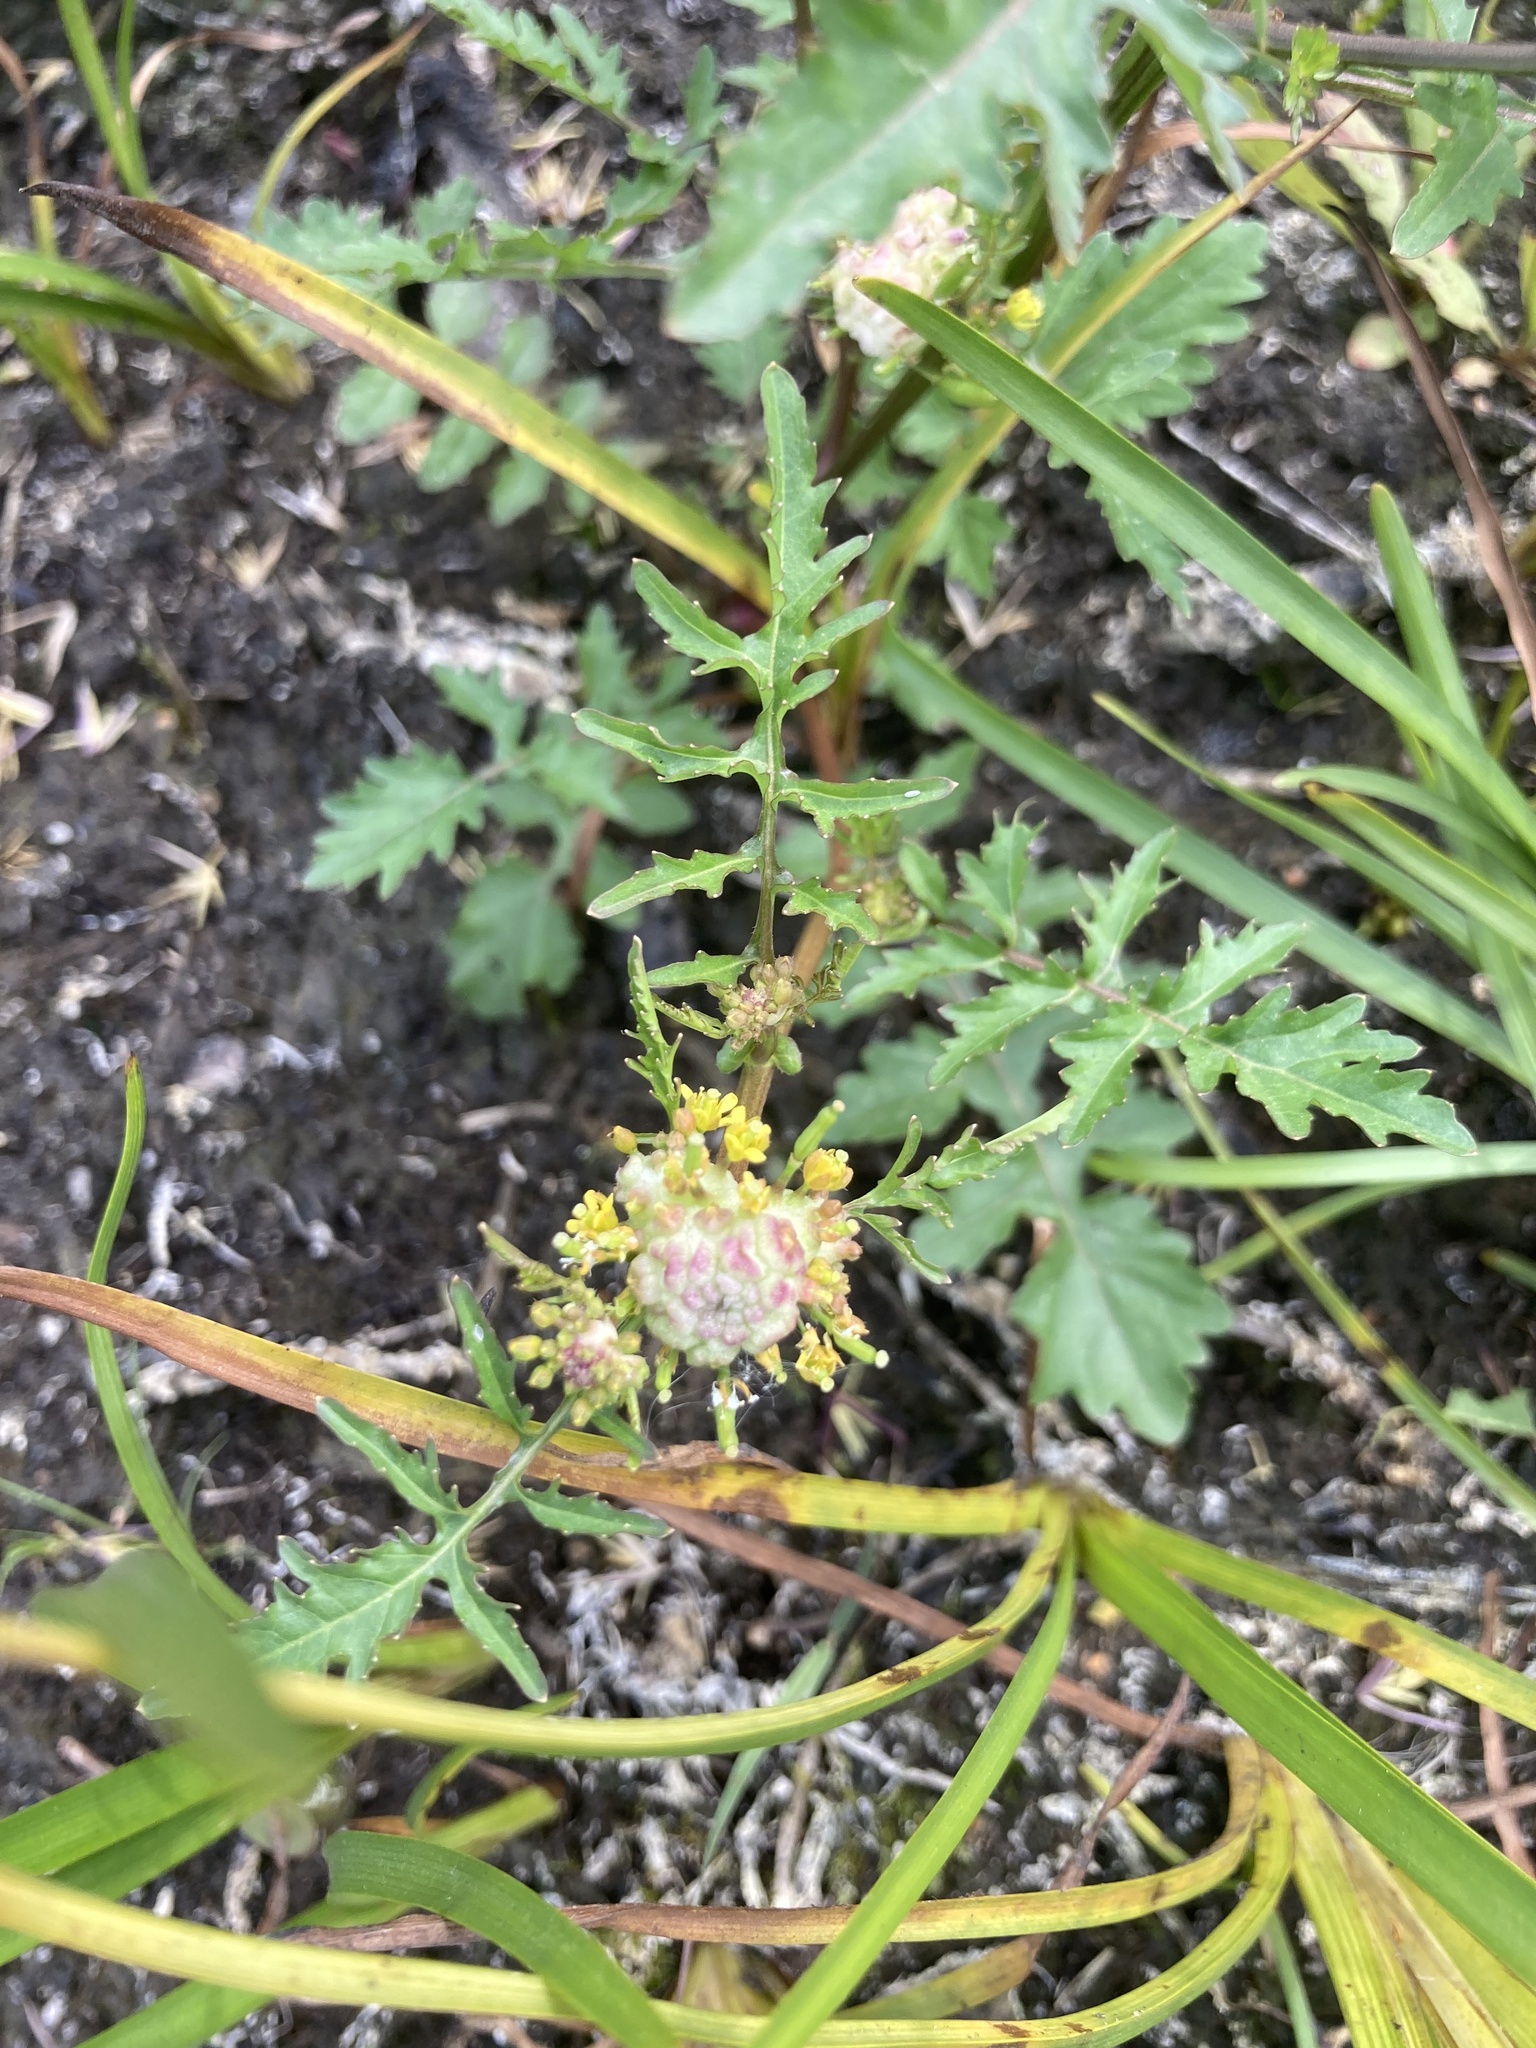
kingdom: Plantae
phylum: Tracheophyta
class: Magnoliopsida
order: Brassicales
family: Brassicaceae
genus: Rorippa
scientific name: Rorippa palustris
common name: Marsh yellow-cress
